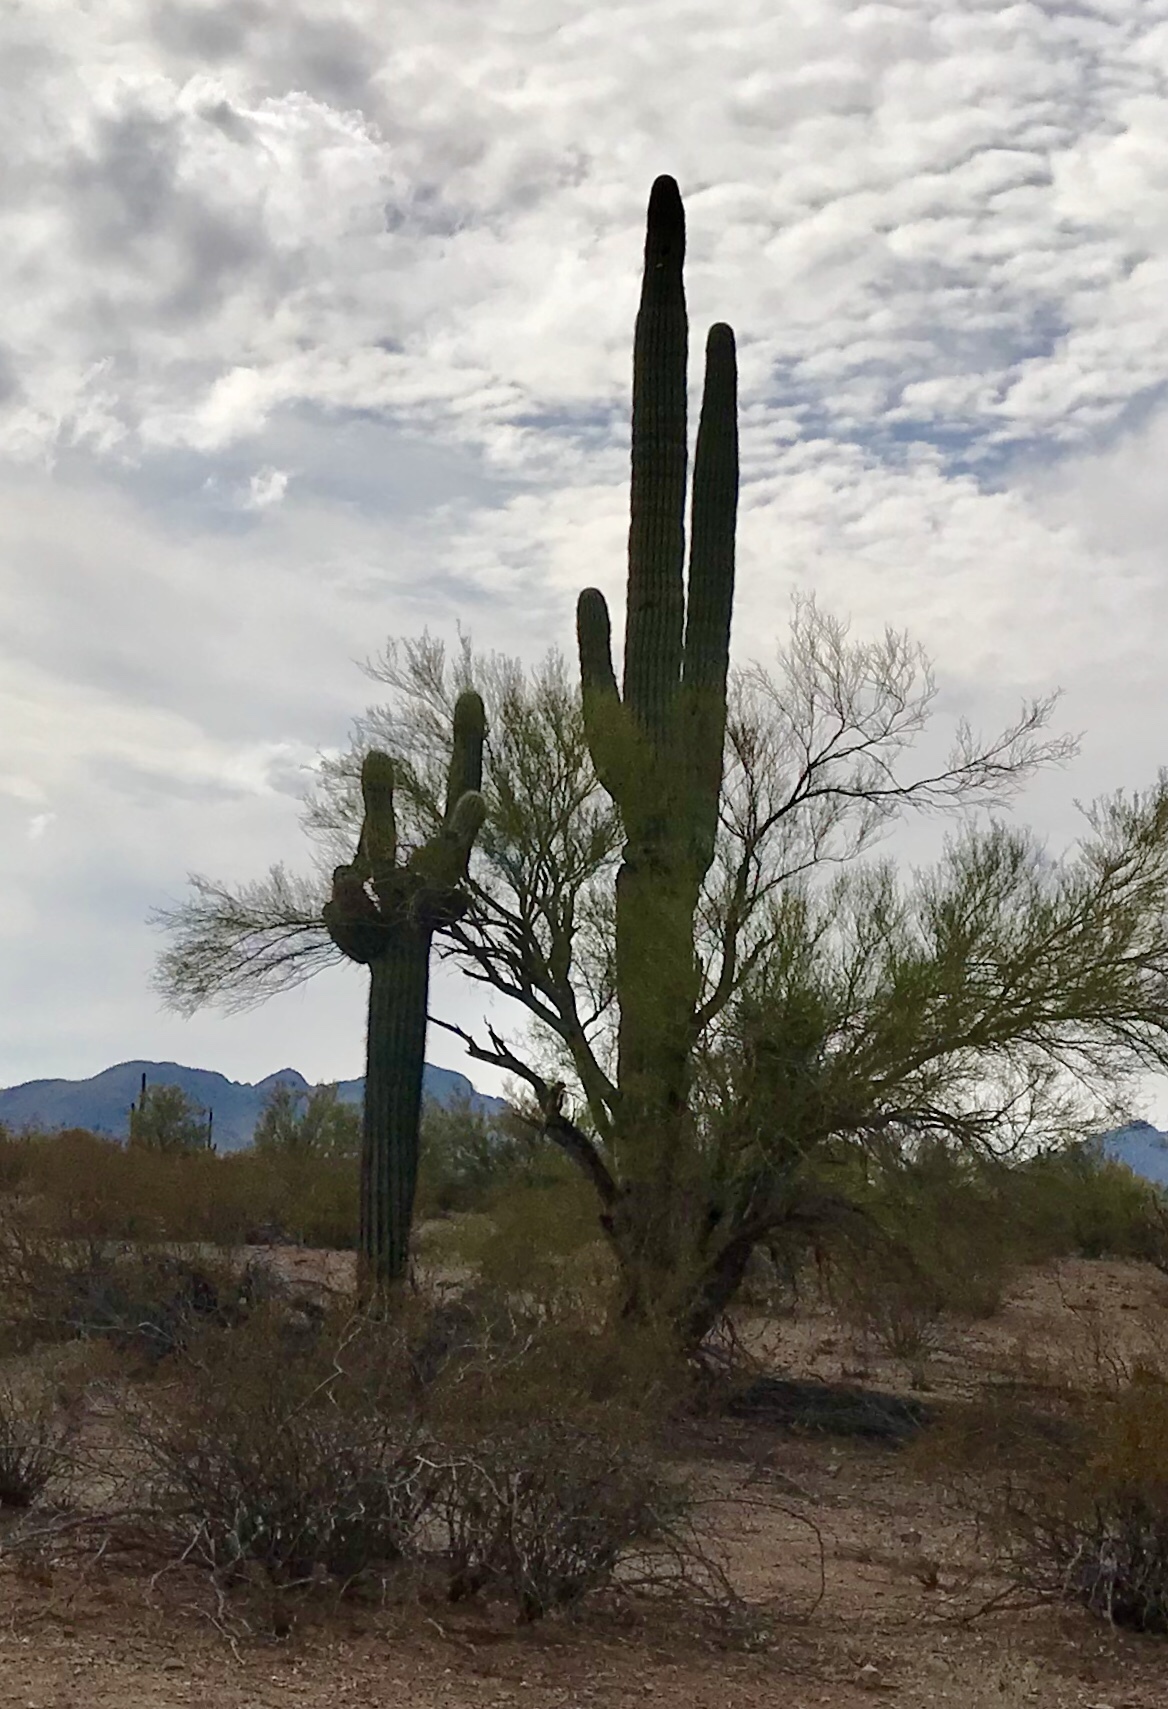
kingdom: Plantae
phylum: Tracheophyta
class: Magnoliopsida
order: Caryophyllales
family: Cactaceae
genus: Carnegiea
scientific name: Carnegiea gigantea
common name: Saguaro
